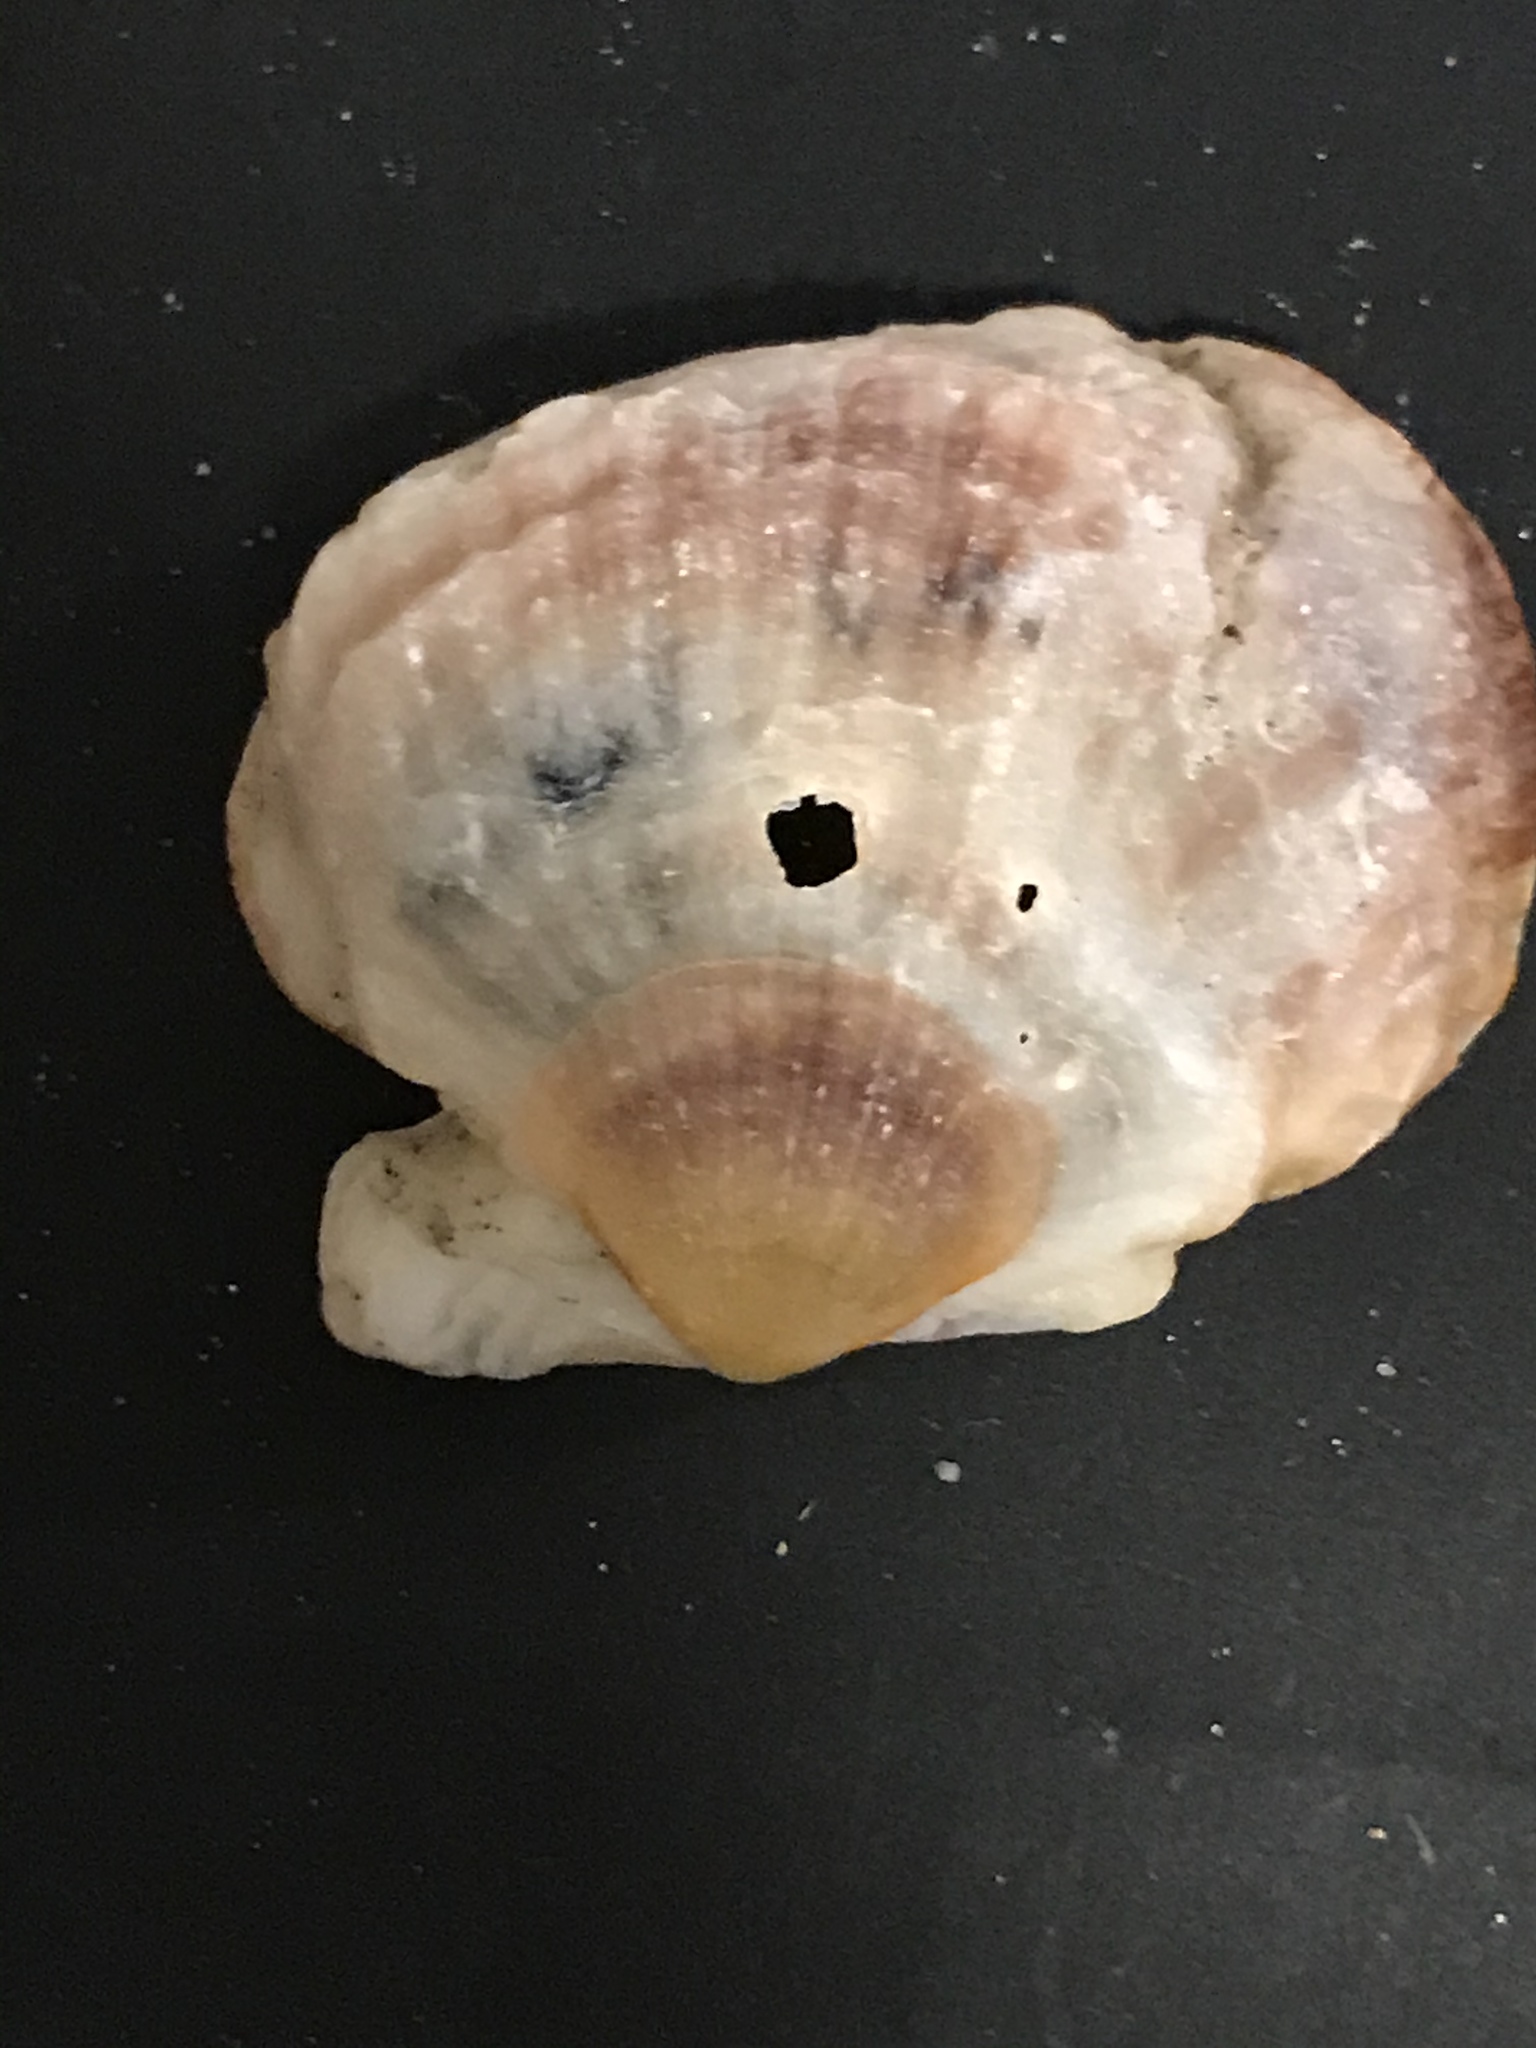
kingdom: Animalia
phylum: Mollusca
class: Bivalvia
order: Pectinida
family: Pectinidae
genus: Crassadoma
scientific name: Crassadoma gigantea
